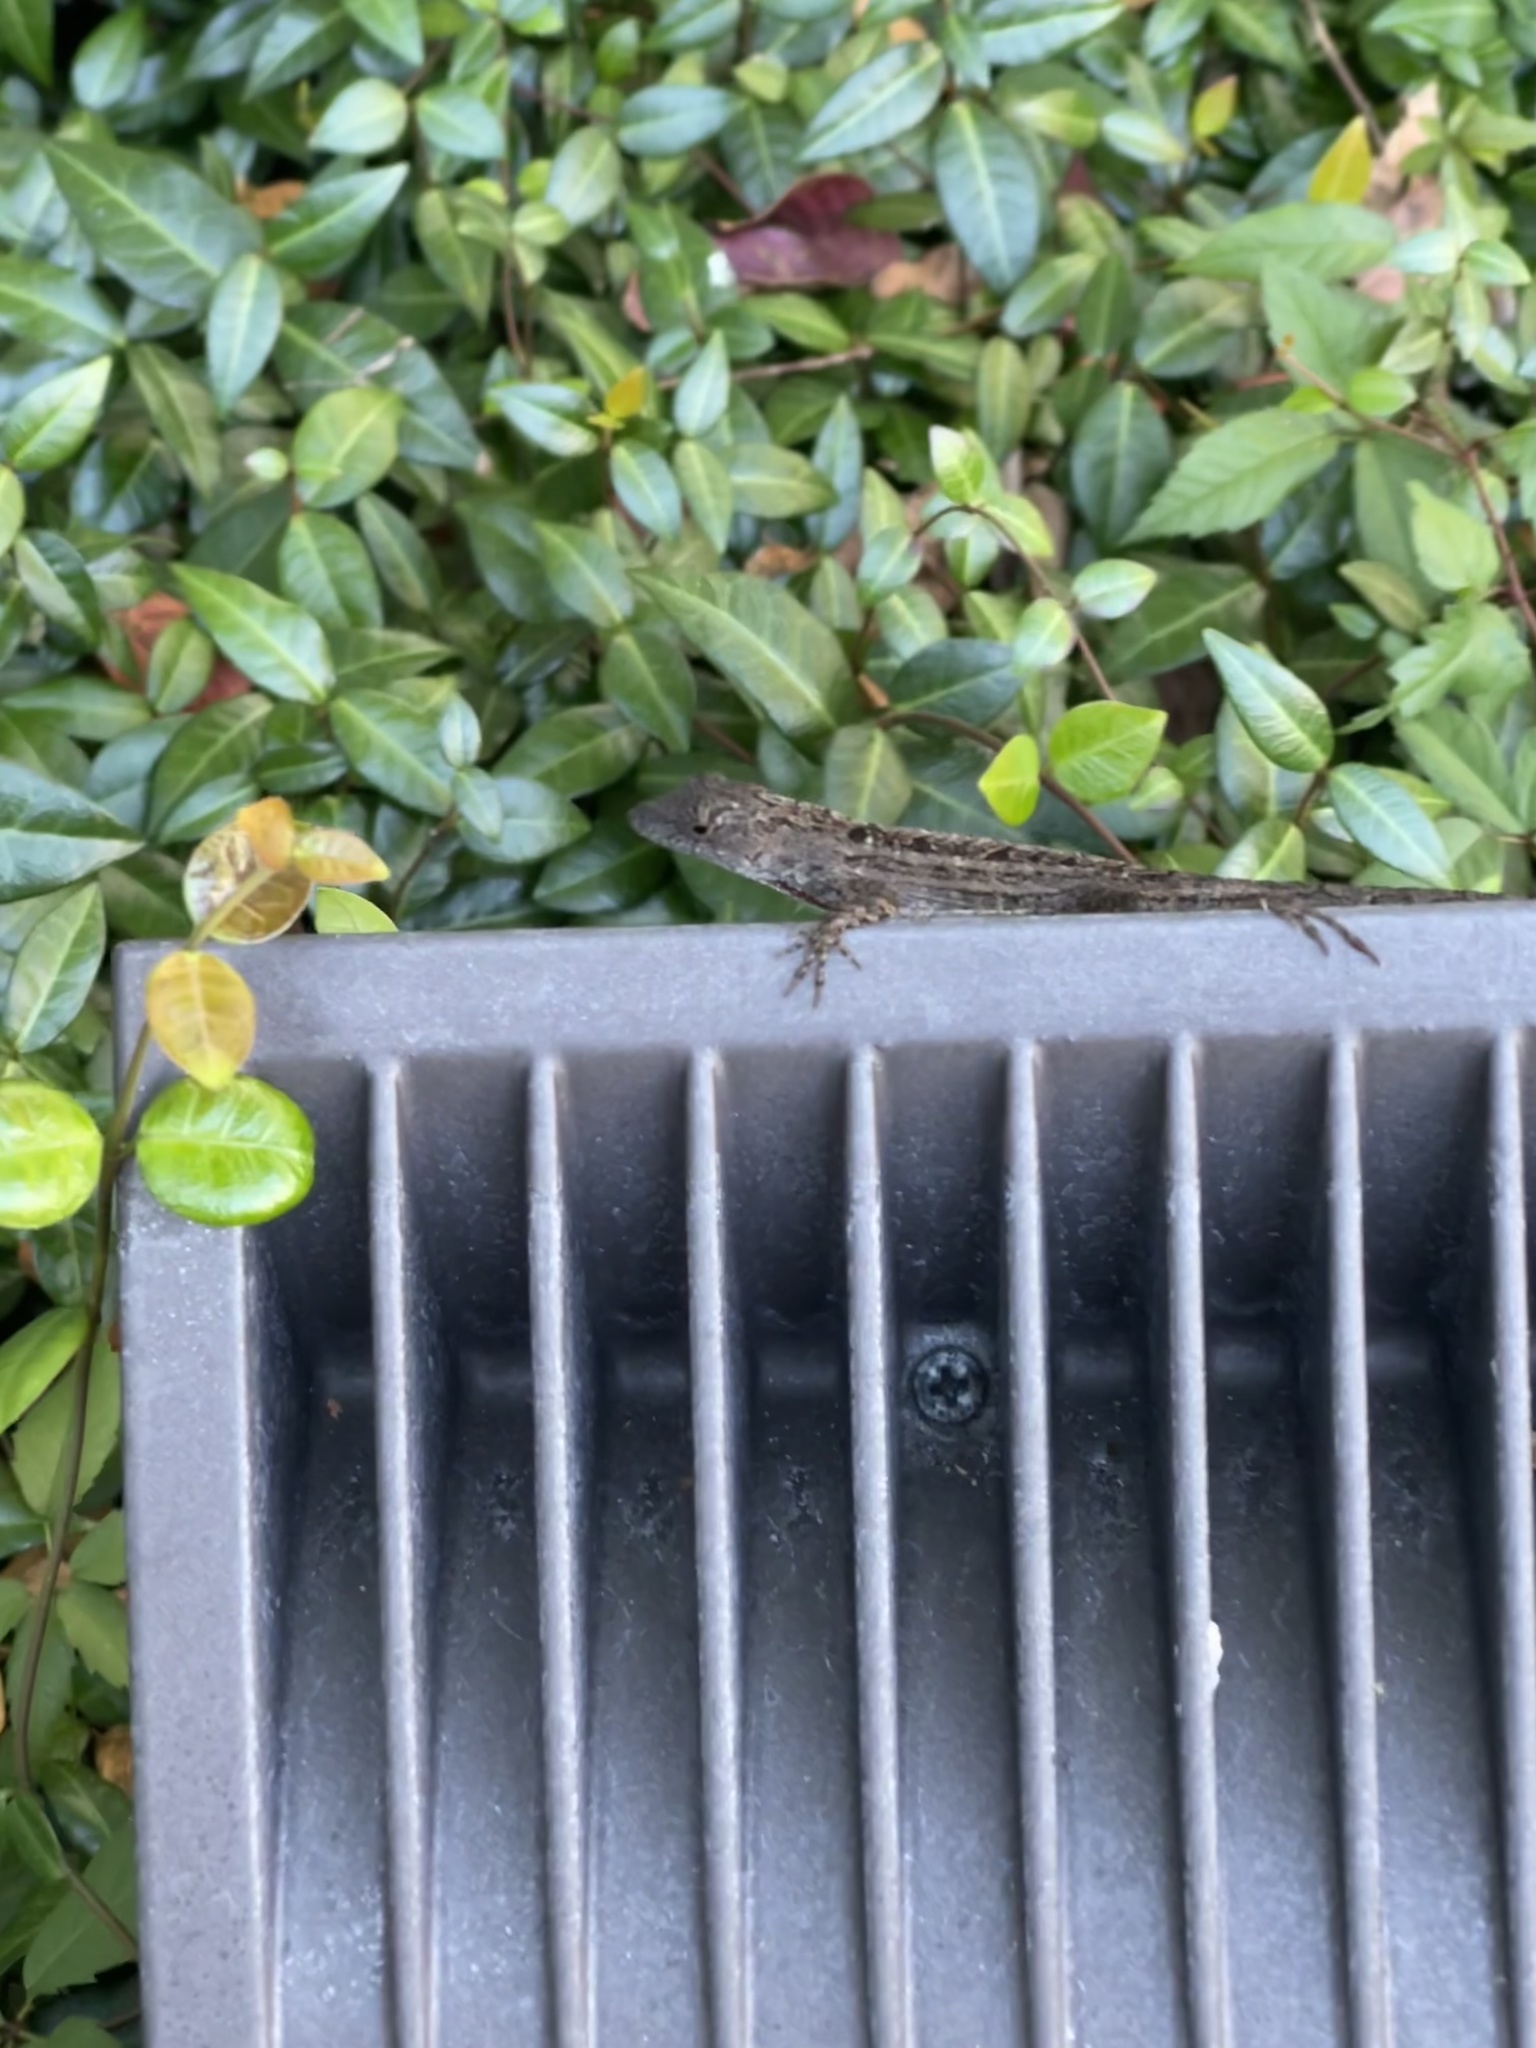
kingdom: Animalia
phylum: Chordata
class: Squamata
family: Dactyloidae
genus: Anolis
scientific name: Anolis sagrei
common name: Brown anole
